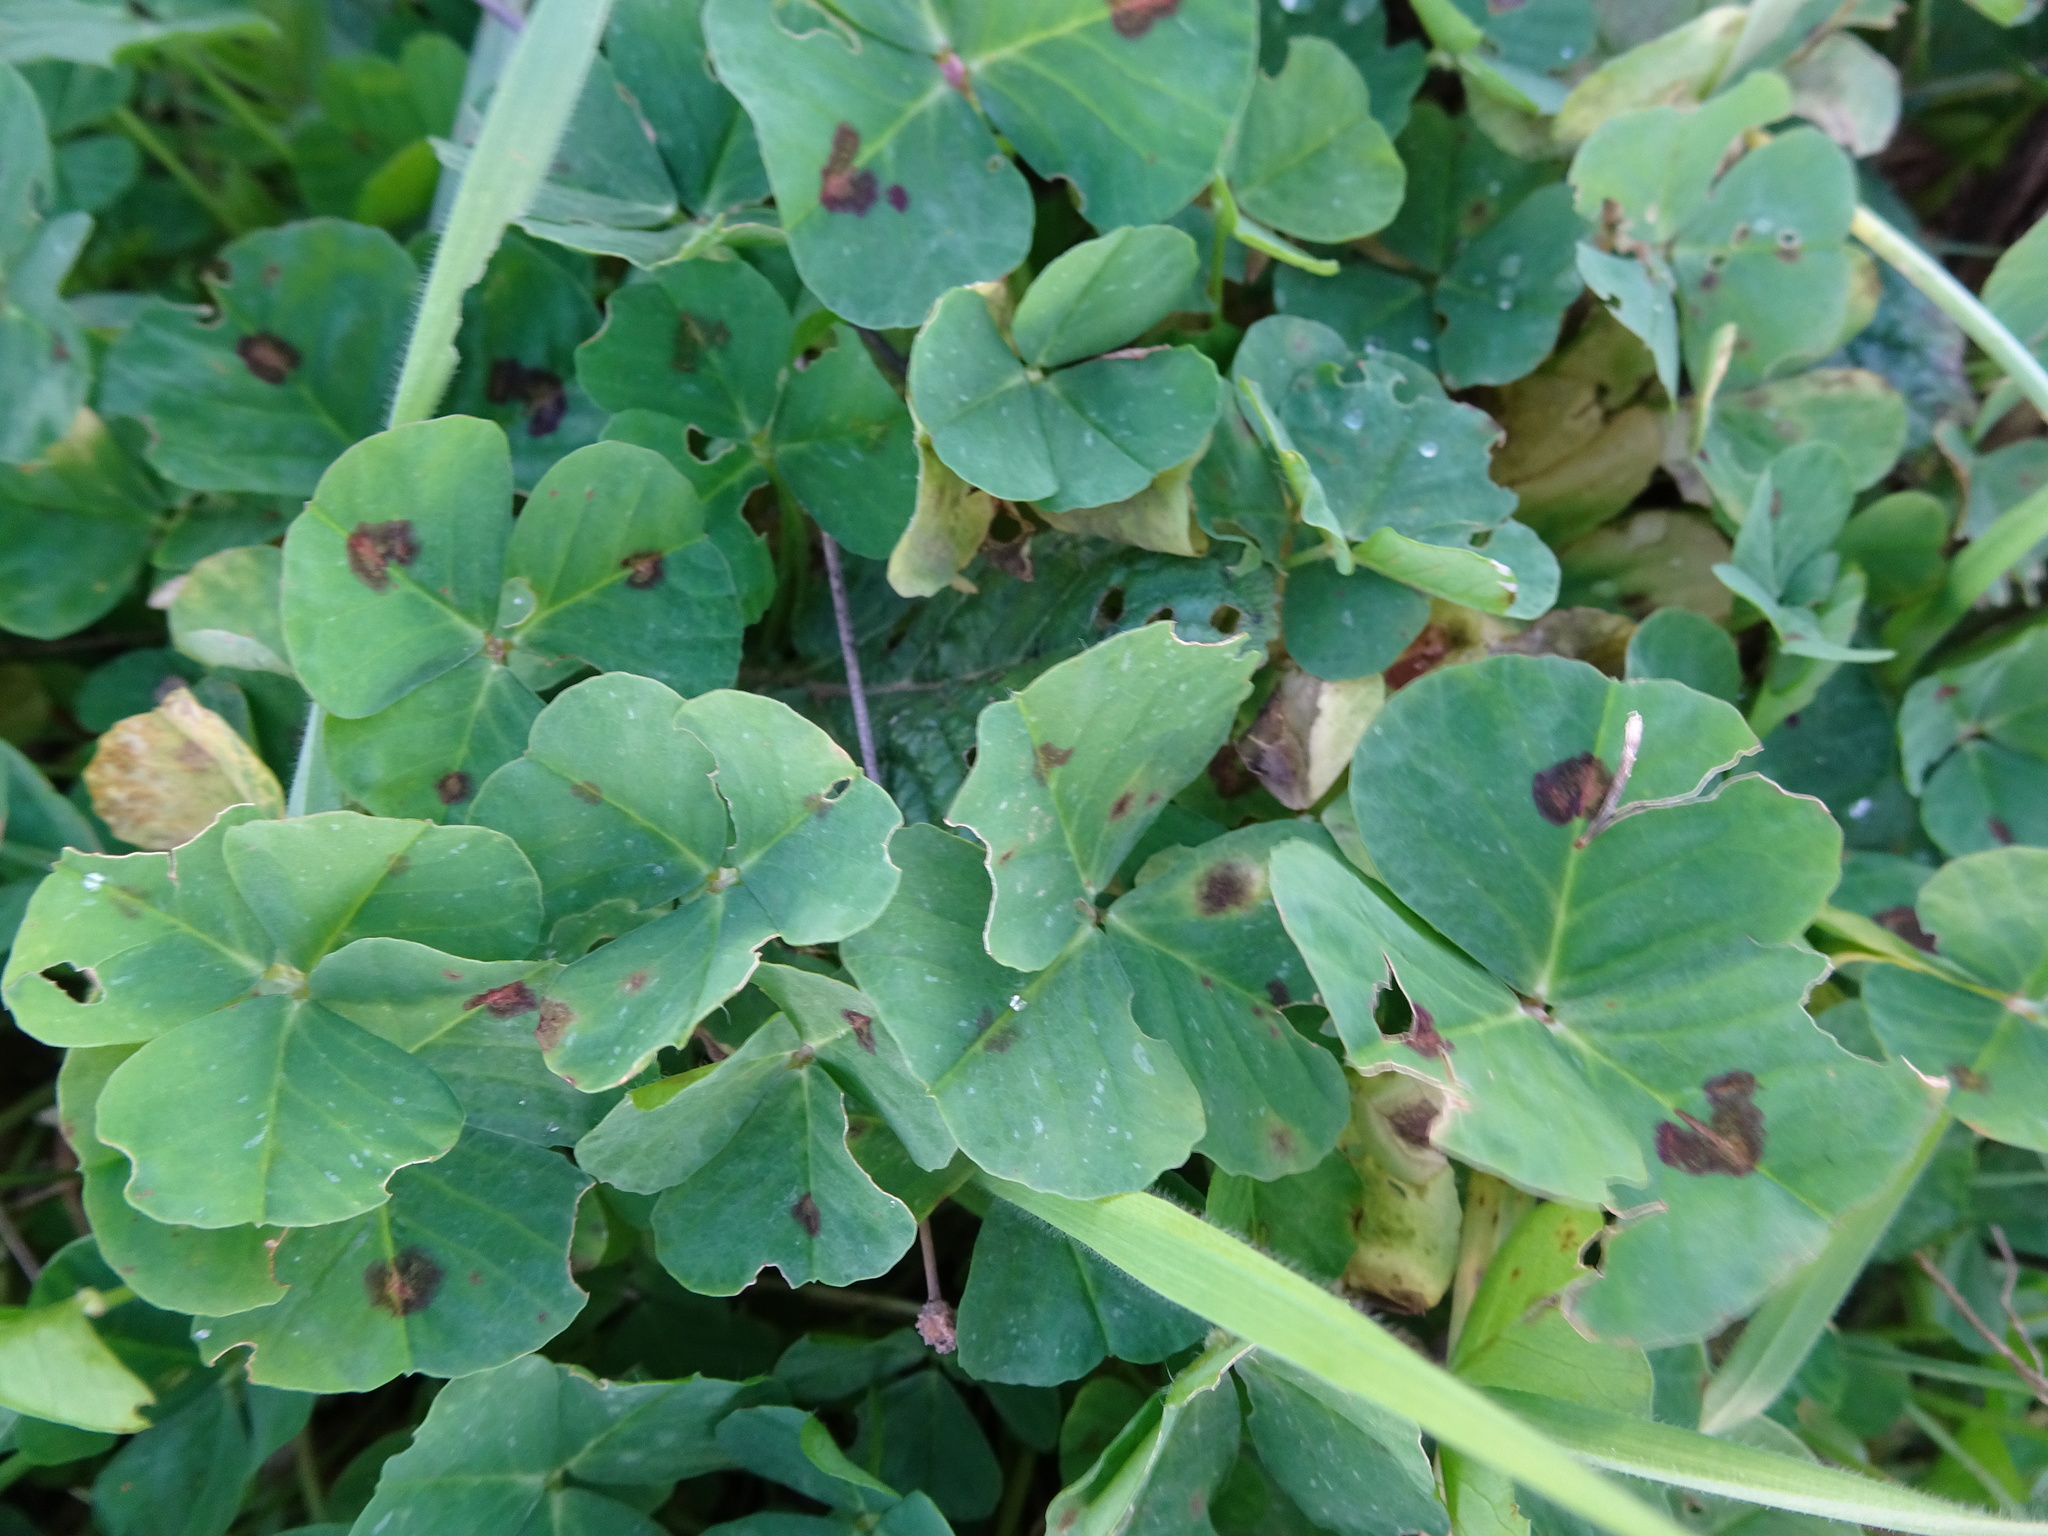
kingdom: Plantae
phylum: Tracheophyta
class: Magnoliopsida
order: Fabales
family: Fabaceae
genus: Medicago
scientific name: Medicago arabica
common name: Spotted medick
